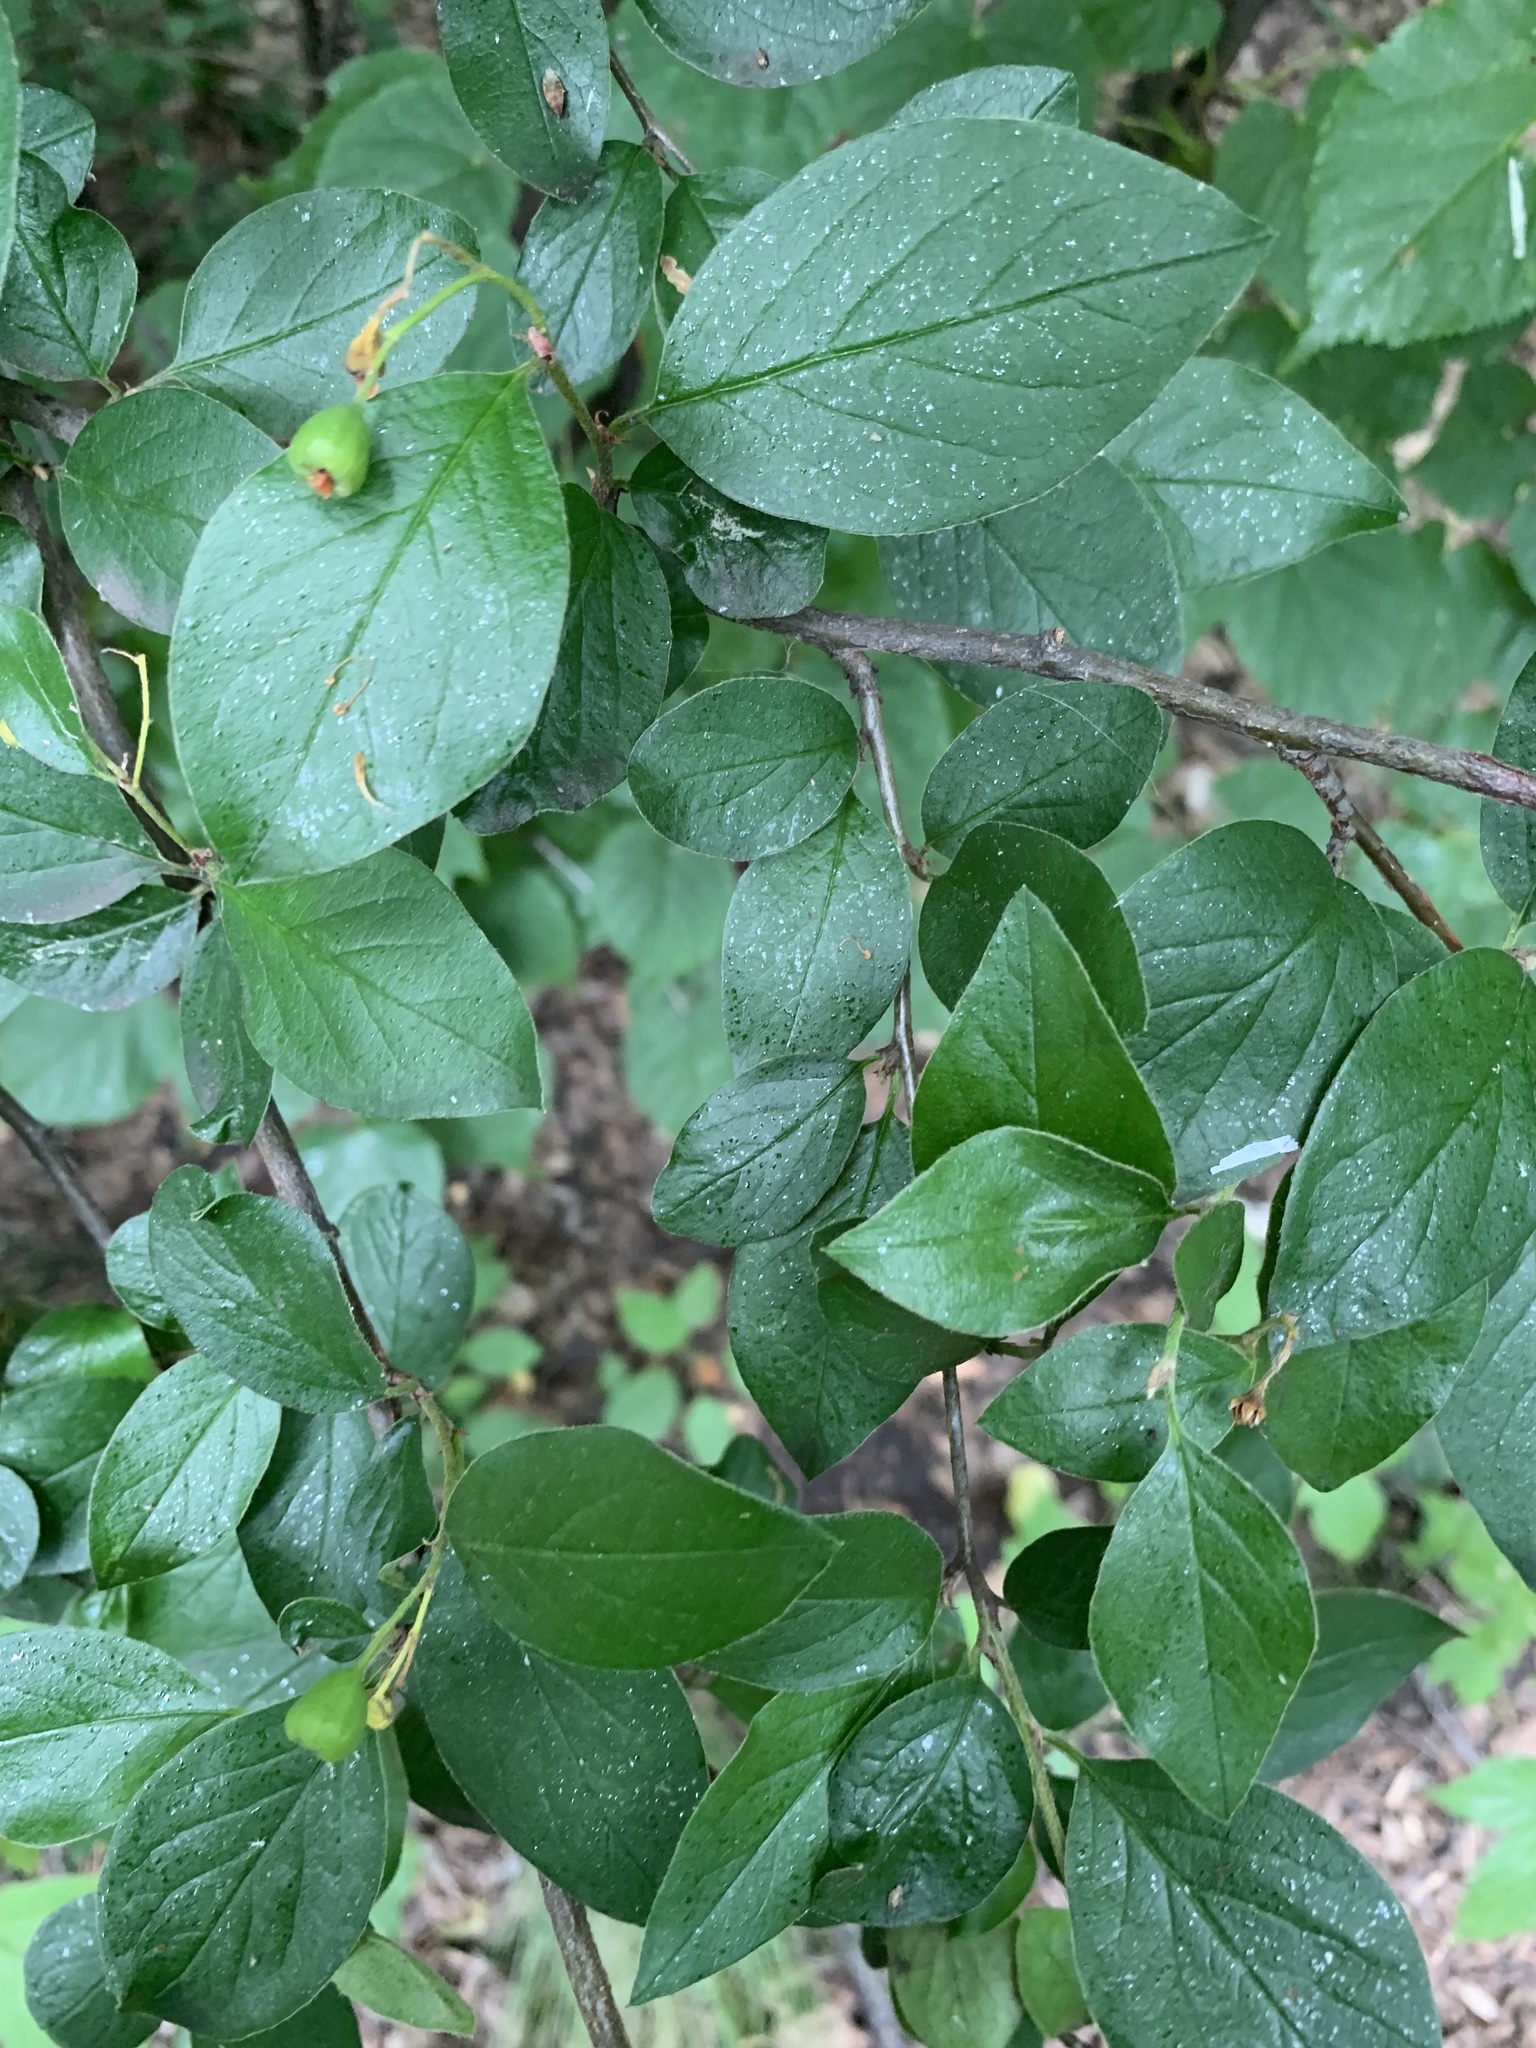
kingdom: Plantae
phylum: Tracheophyta
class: Magnoliopsida
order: Rosales
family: Rosaceae
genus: Cotoneaster
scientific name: Cotoneaster acutifolius
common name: Peking cotoneaster
